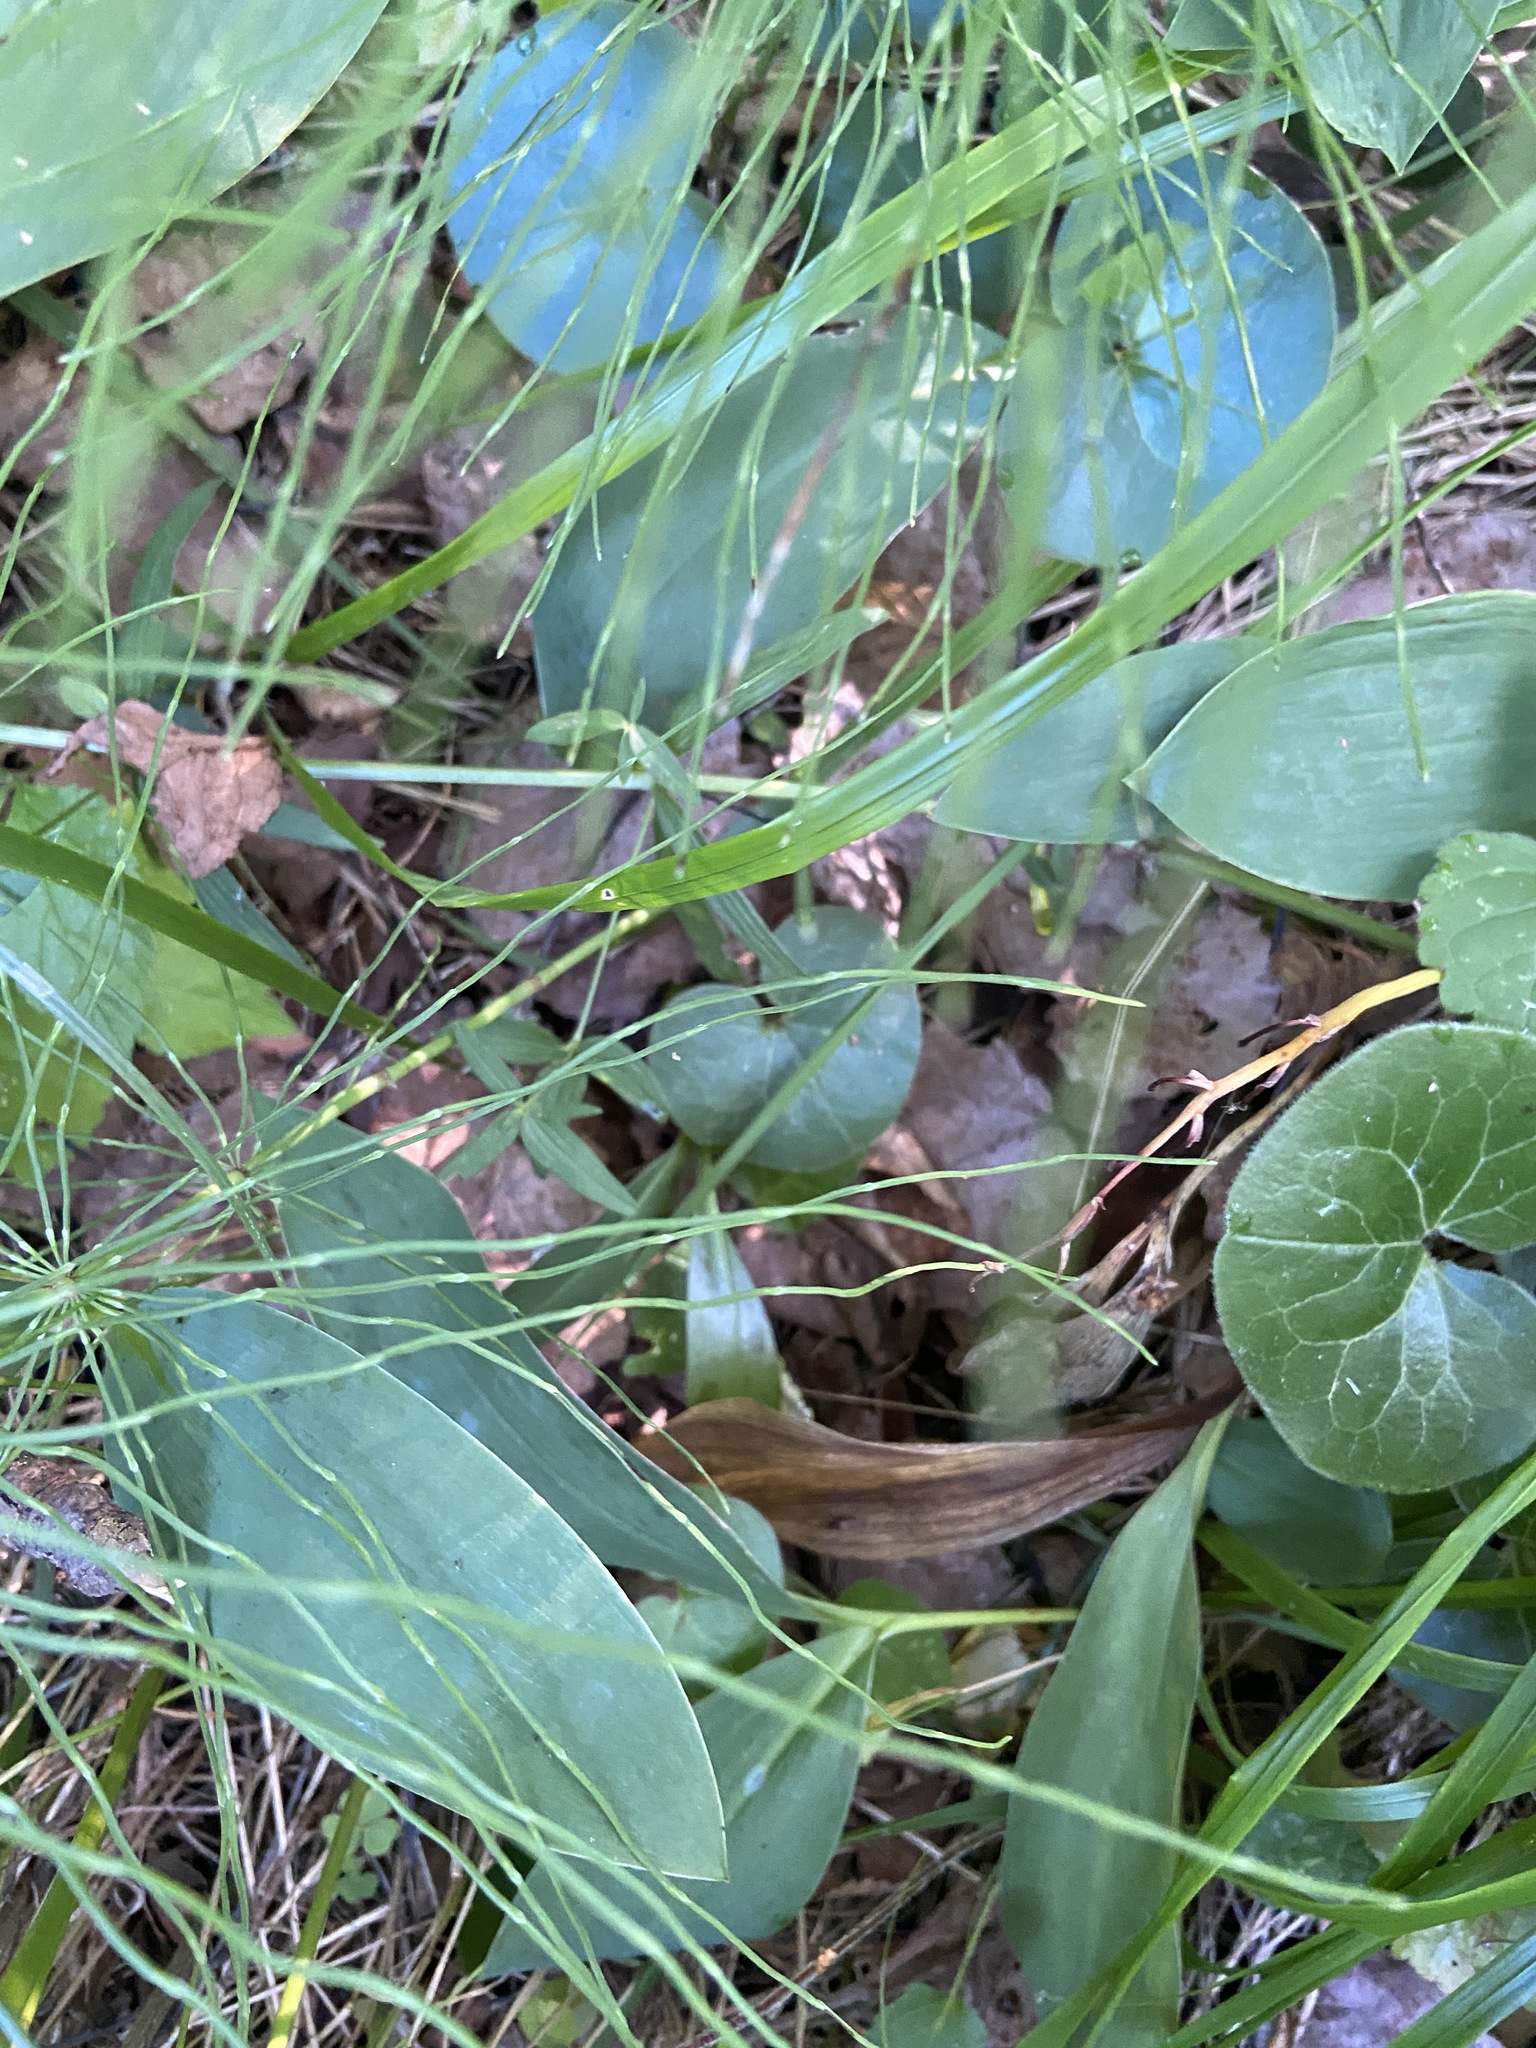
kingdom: Plantae
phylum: Tracheophyta
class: Magnoliopsida
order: Piperales
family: Aristolochiaceae
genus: Asarum
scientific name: Asarum europaeum
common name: Asarabacca
